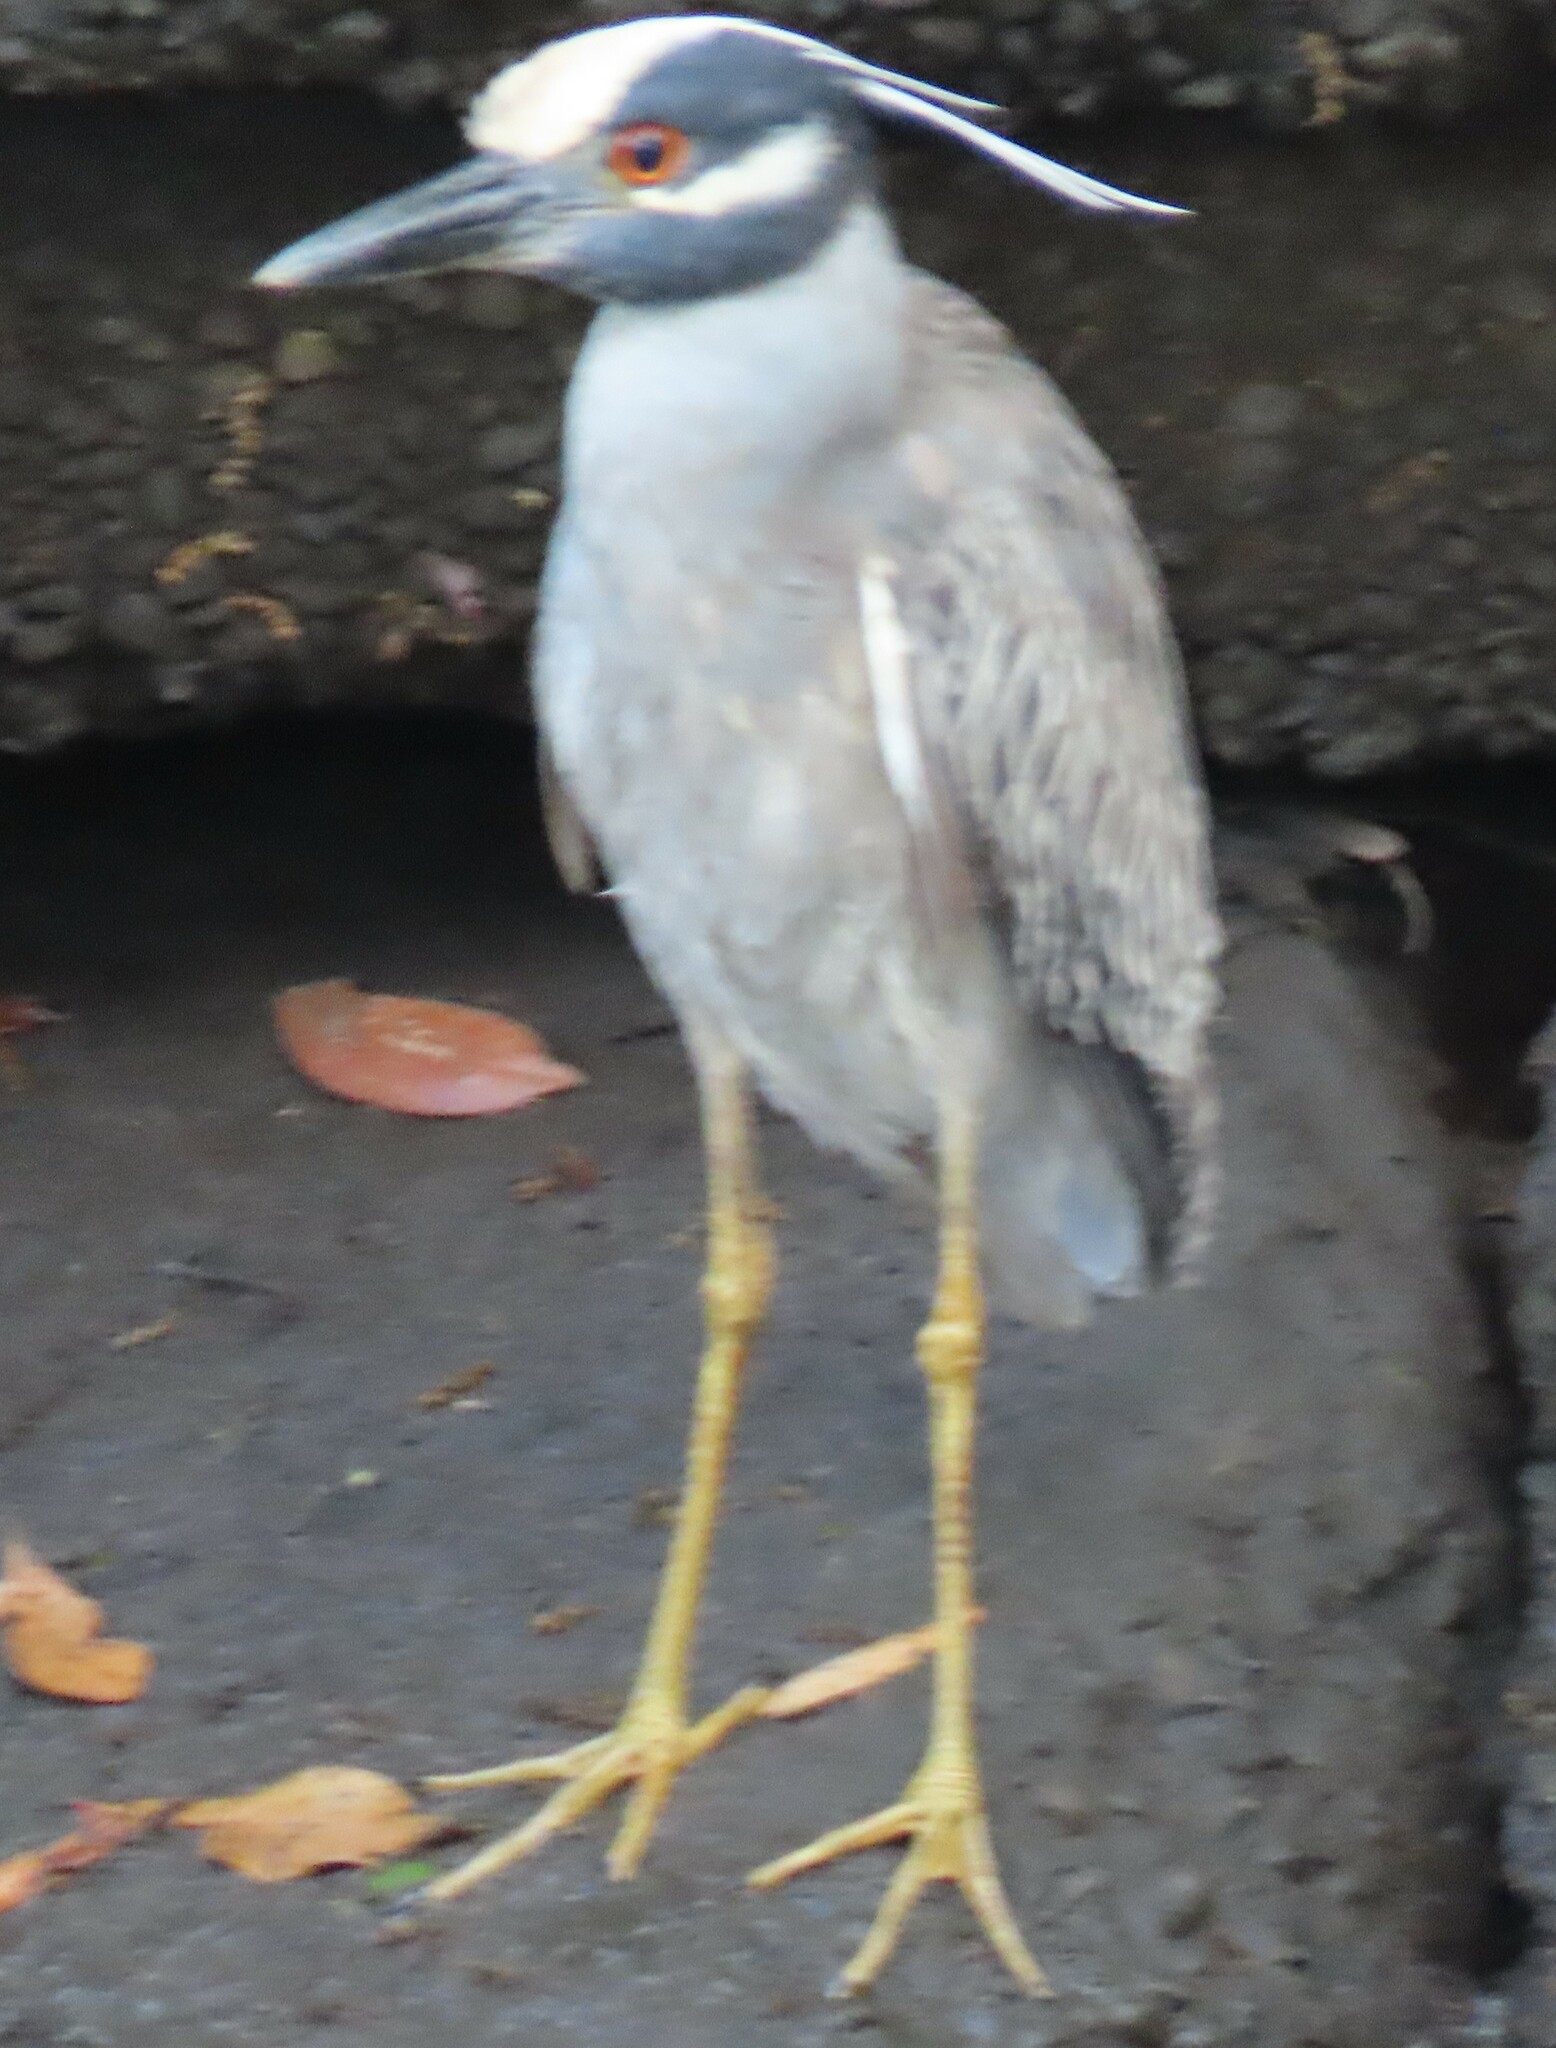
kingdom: Animalia
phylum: Chordata
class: Aves
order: Pelecaniformes
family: Ardeidae
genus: Nyctanassa
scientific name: Nyctanassa violacea
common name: Yellow-crowned night heron
